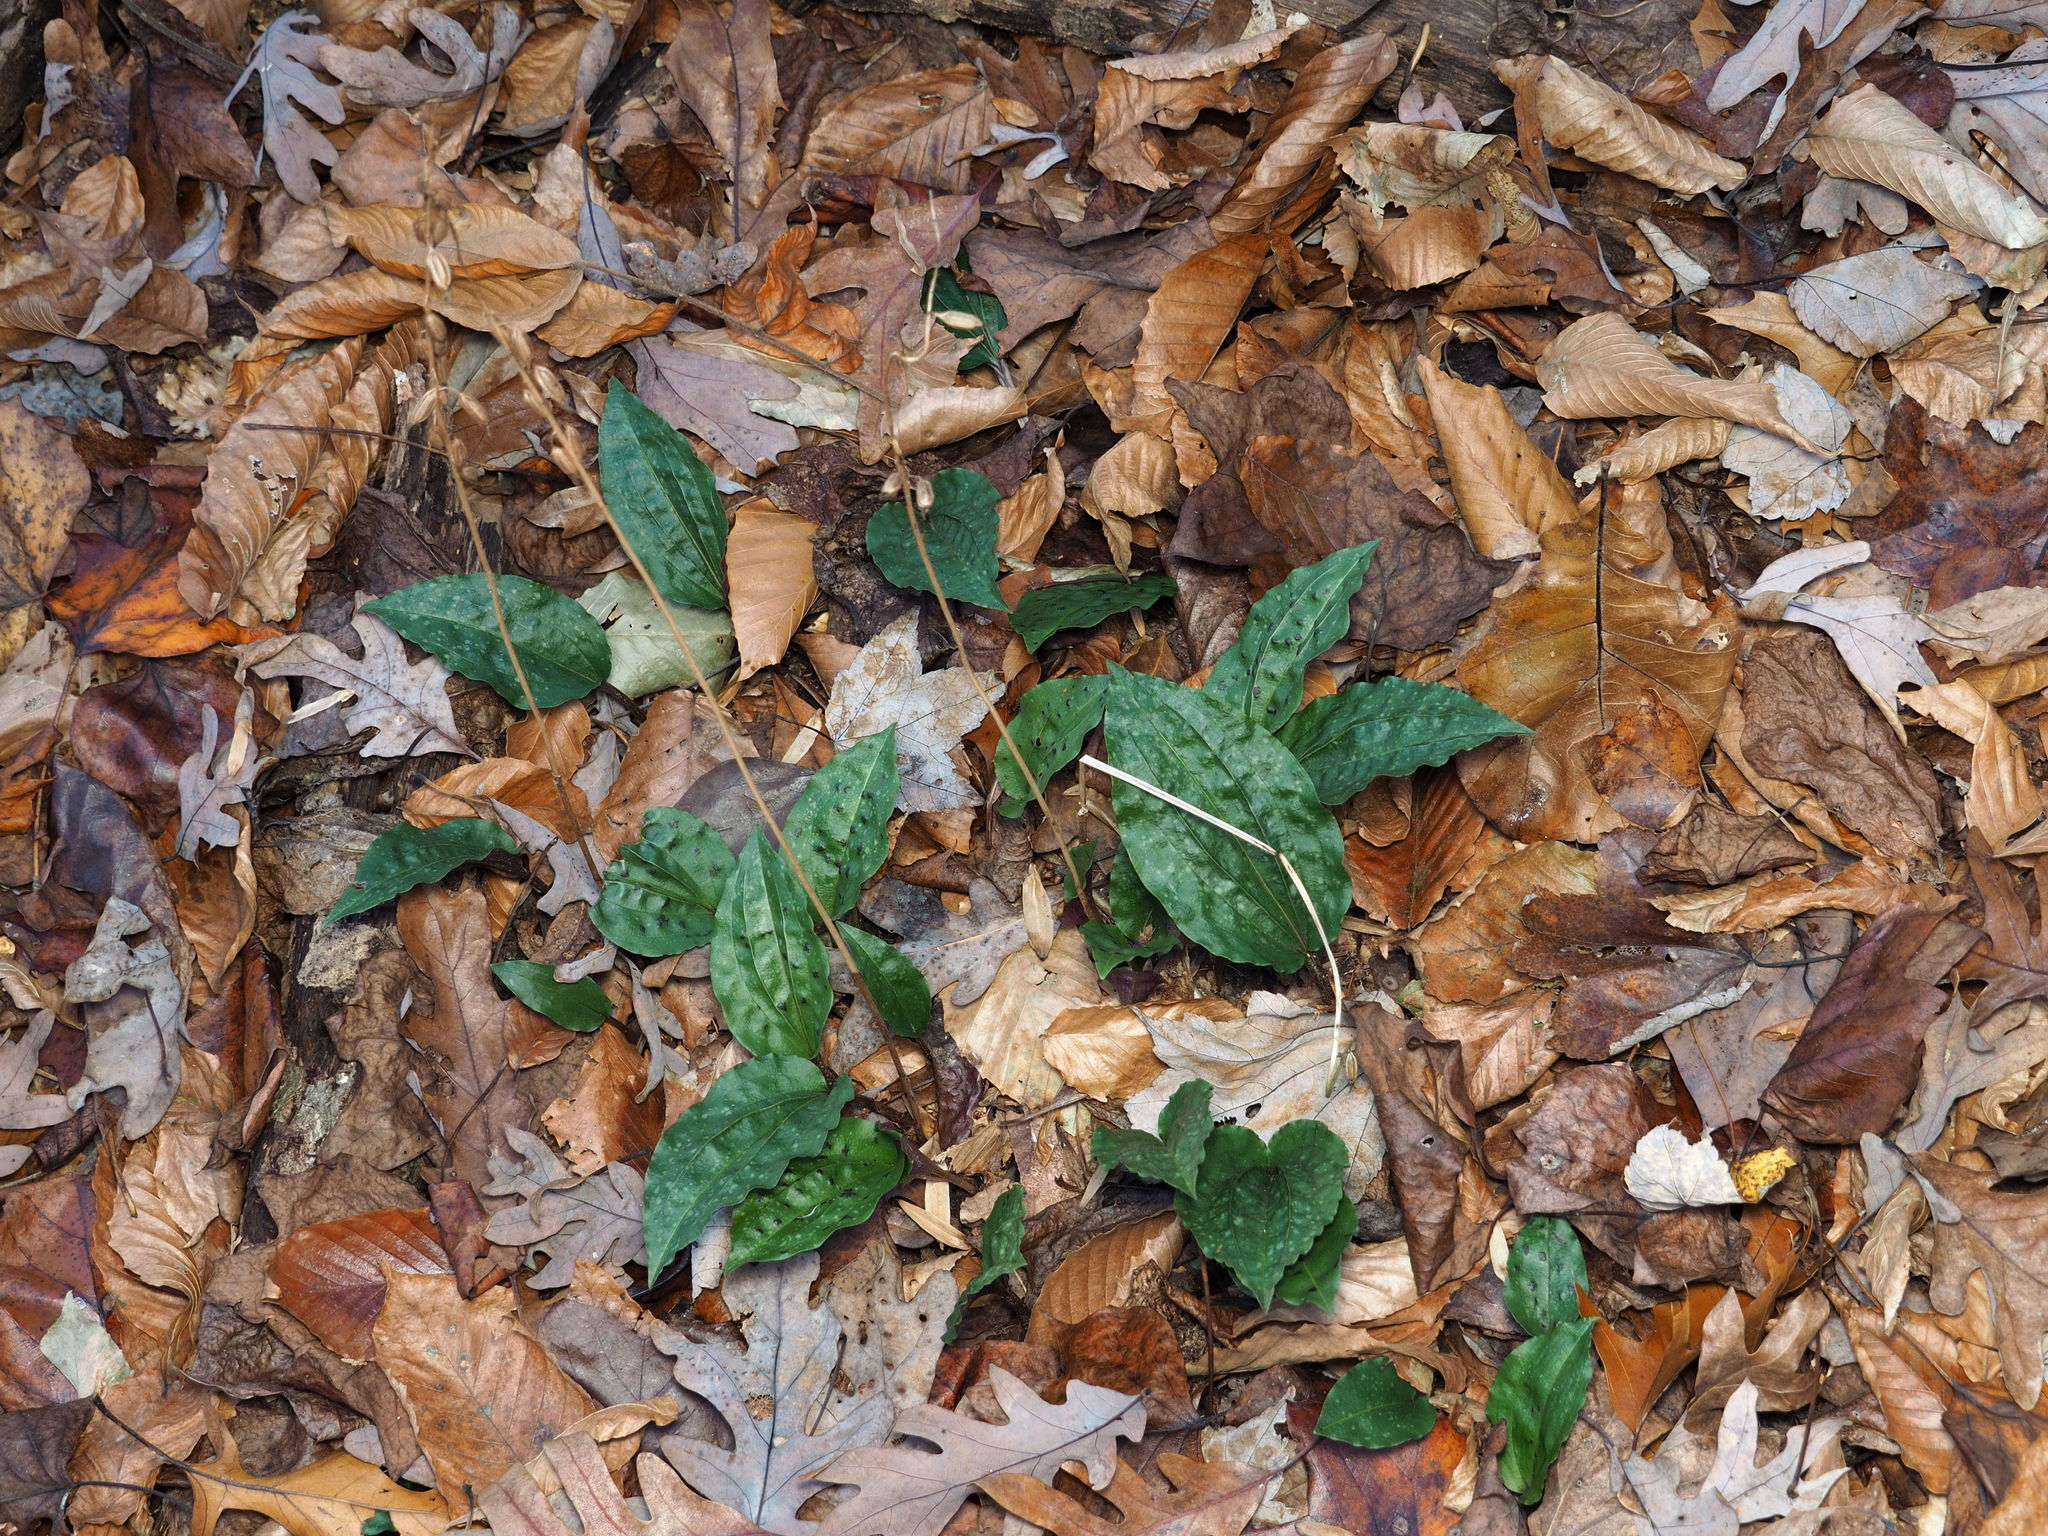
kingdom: Plantae
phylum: Tracheophyta
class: Liliopsida
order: Asparagales
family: Orchidaceae
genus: Tipularia
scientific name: Tipularia discolor
